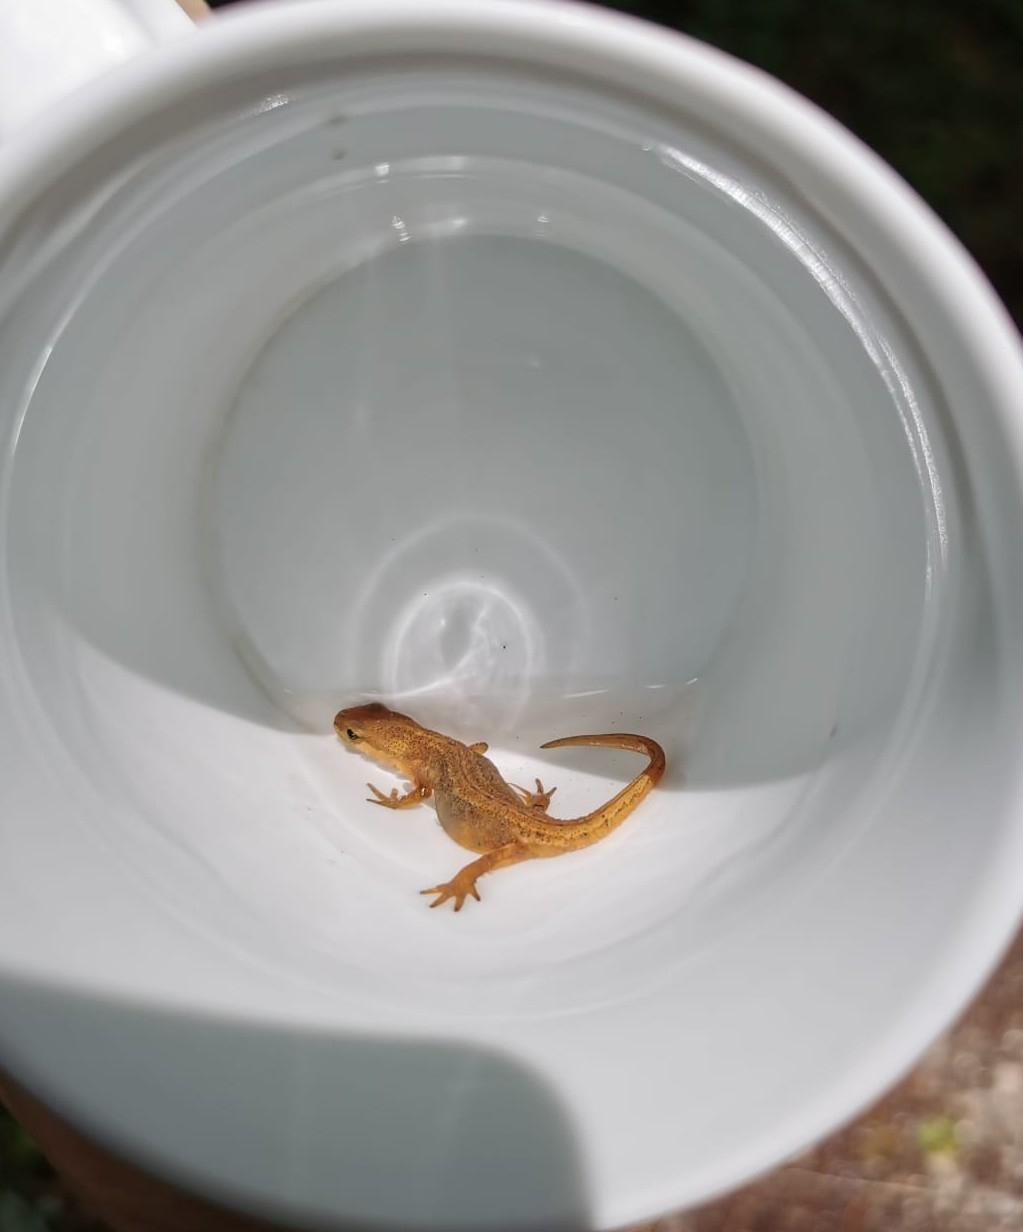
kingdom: Animalia
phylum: Chordata
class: Amphibia
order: Caudata
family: Salamandridae
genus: Lissotriton
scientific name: Lissotriton vulgaris
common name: Smooth newt
